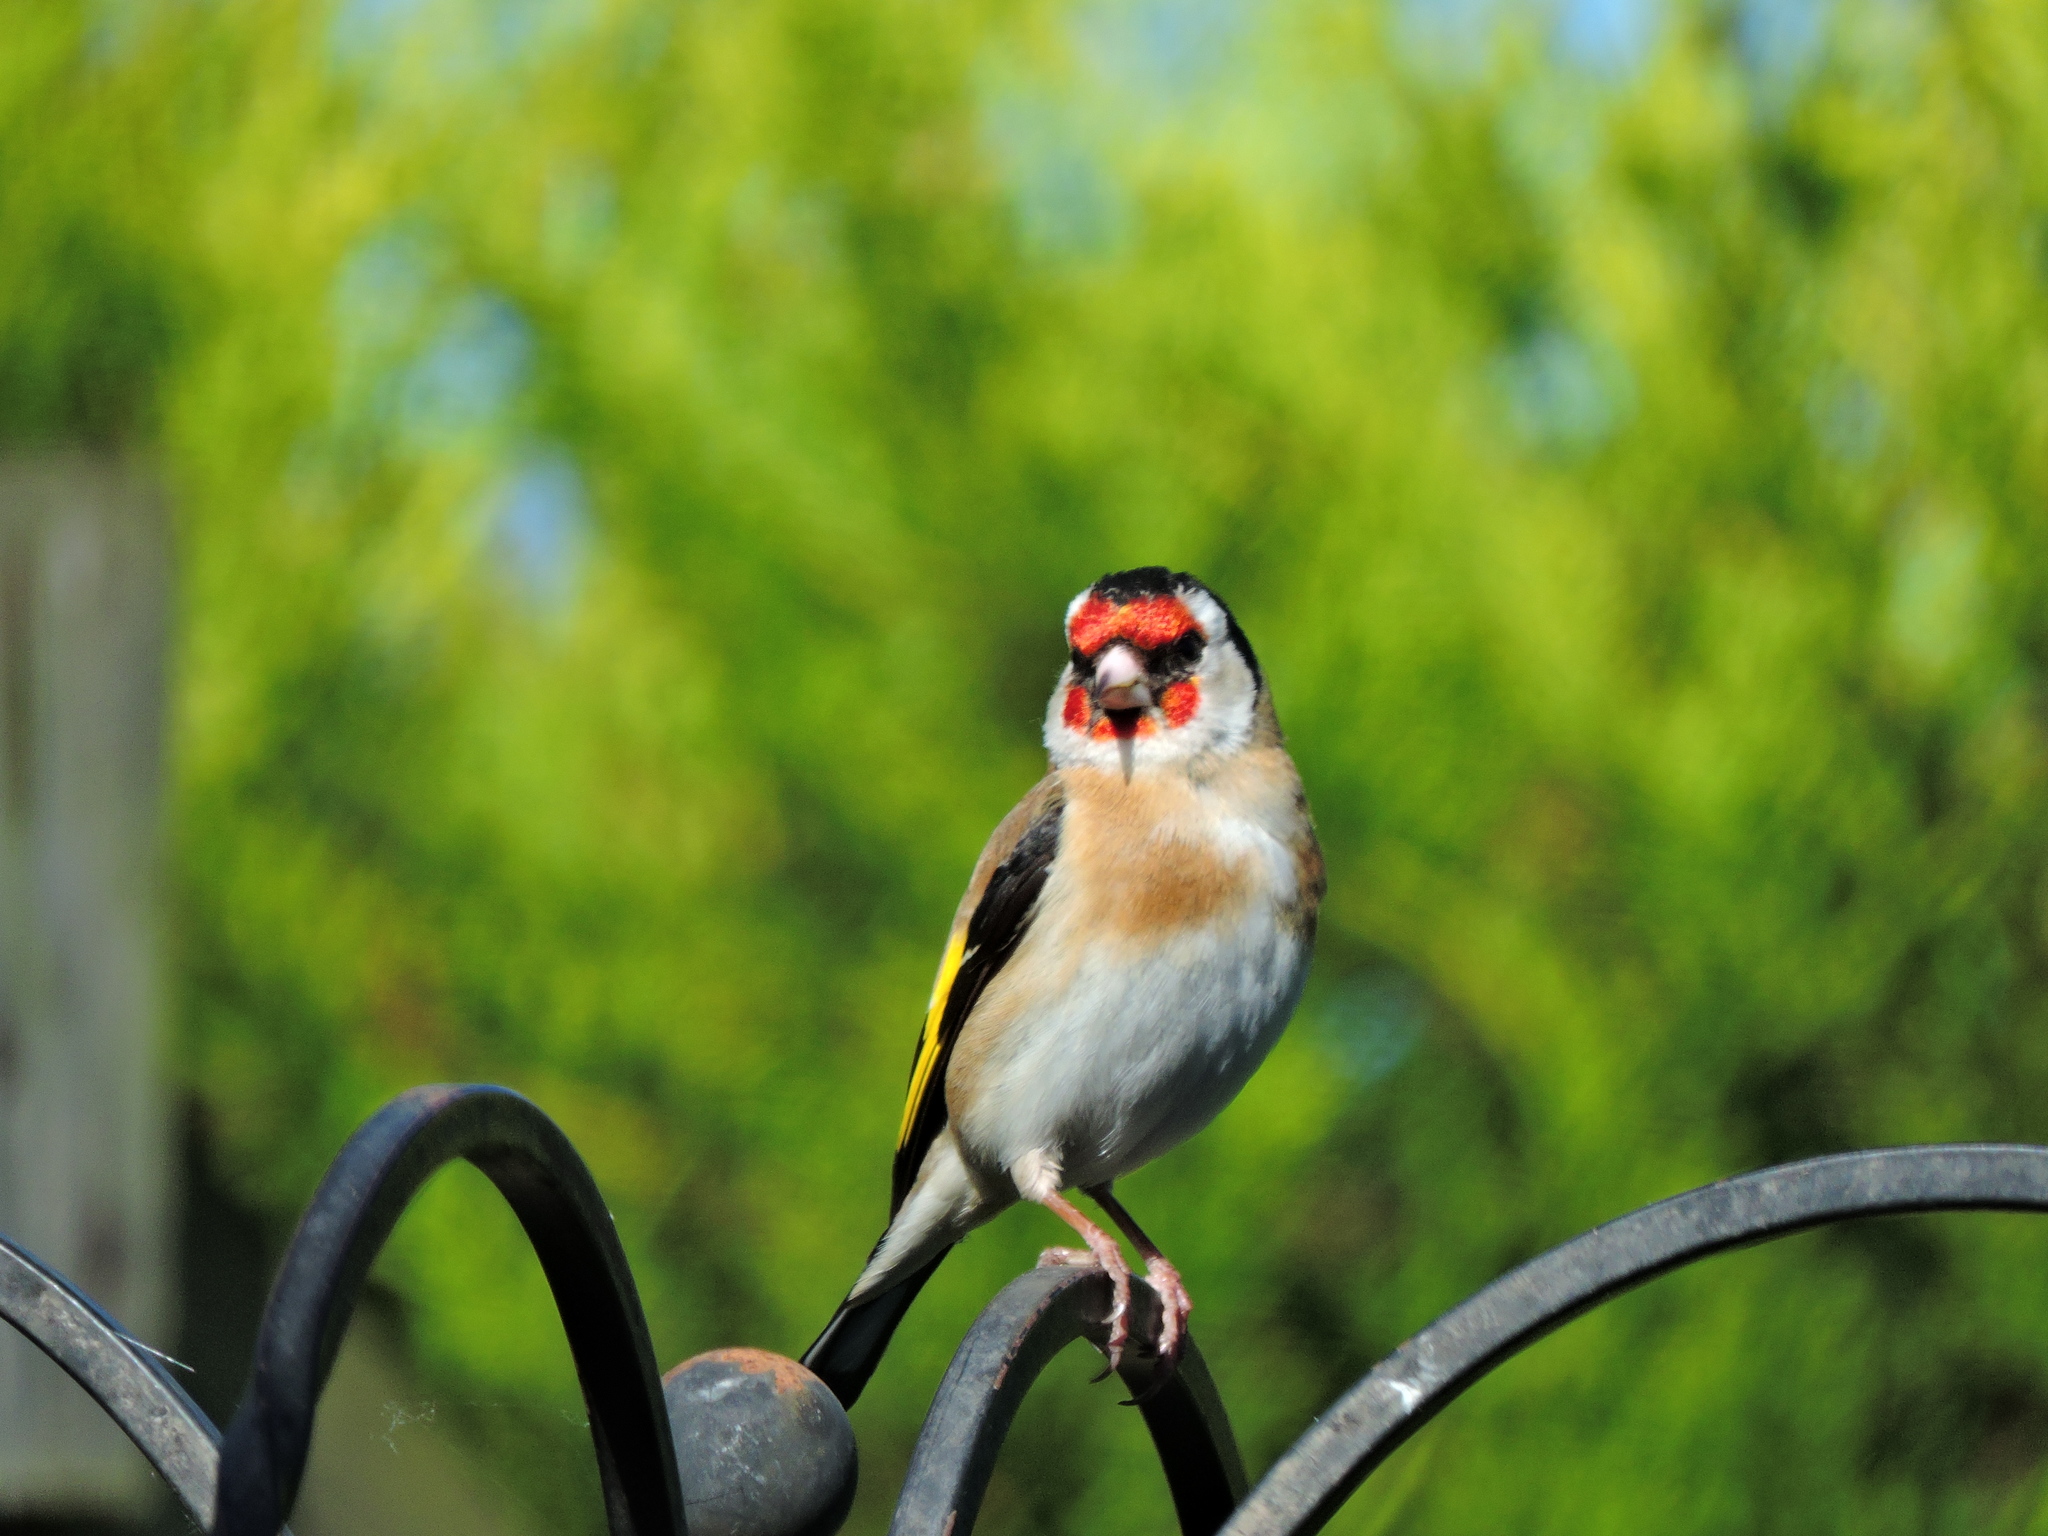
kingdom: Animalia
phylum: Chordata
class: Aves
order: Passeriformes
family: Fringillidae
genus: Carduelis
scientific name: Carduelis carduelis
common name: European goldfinch
